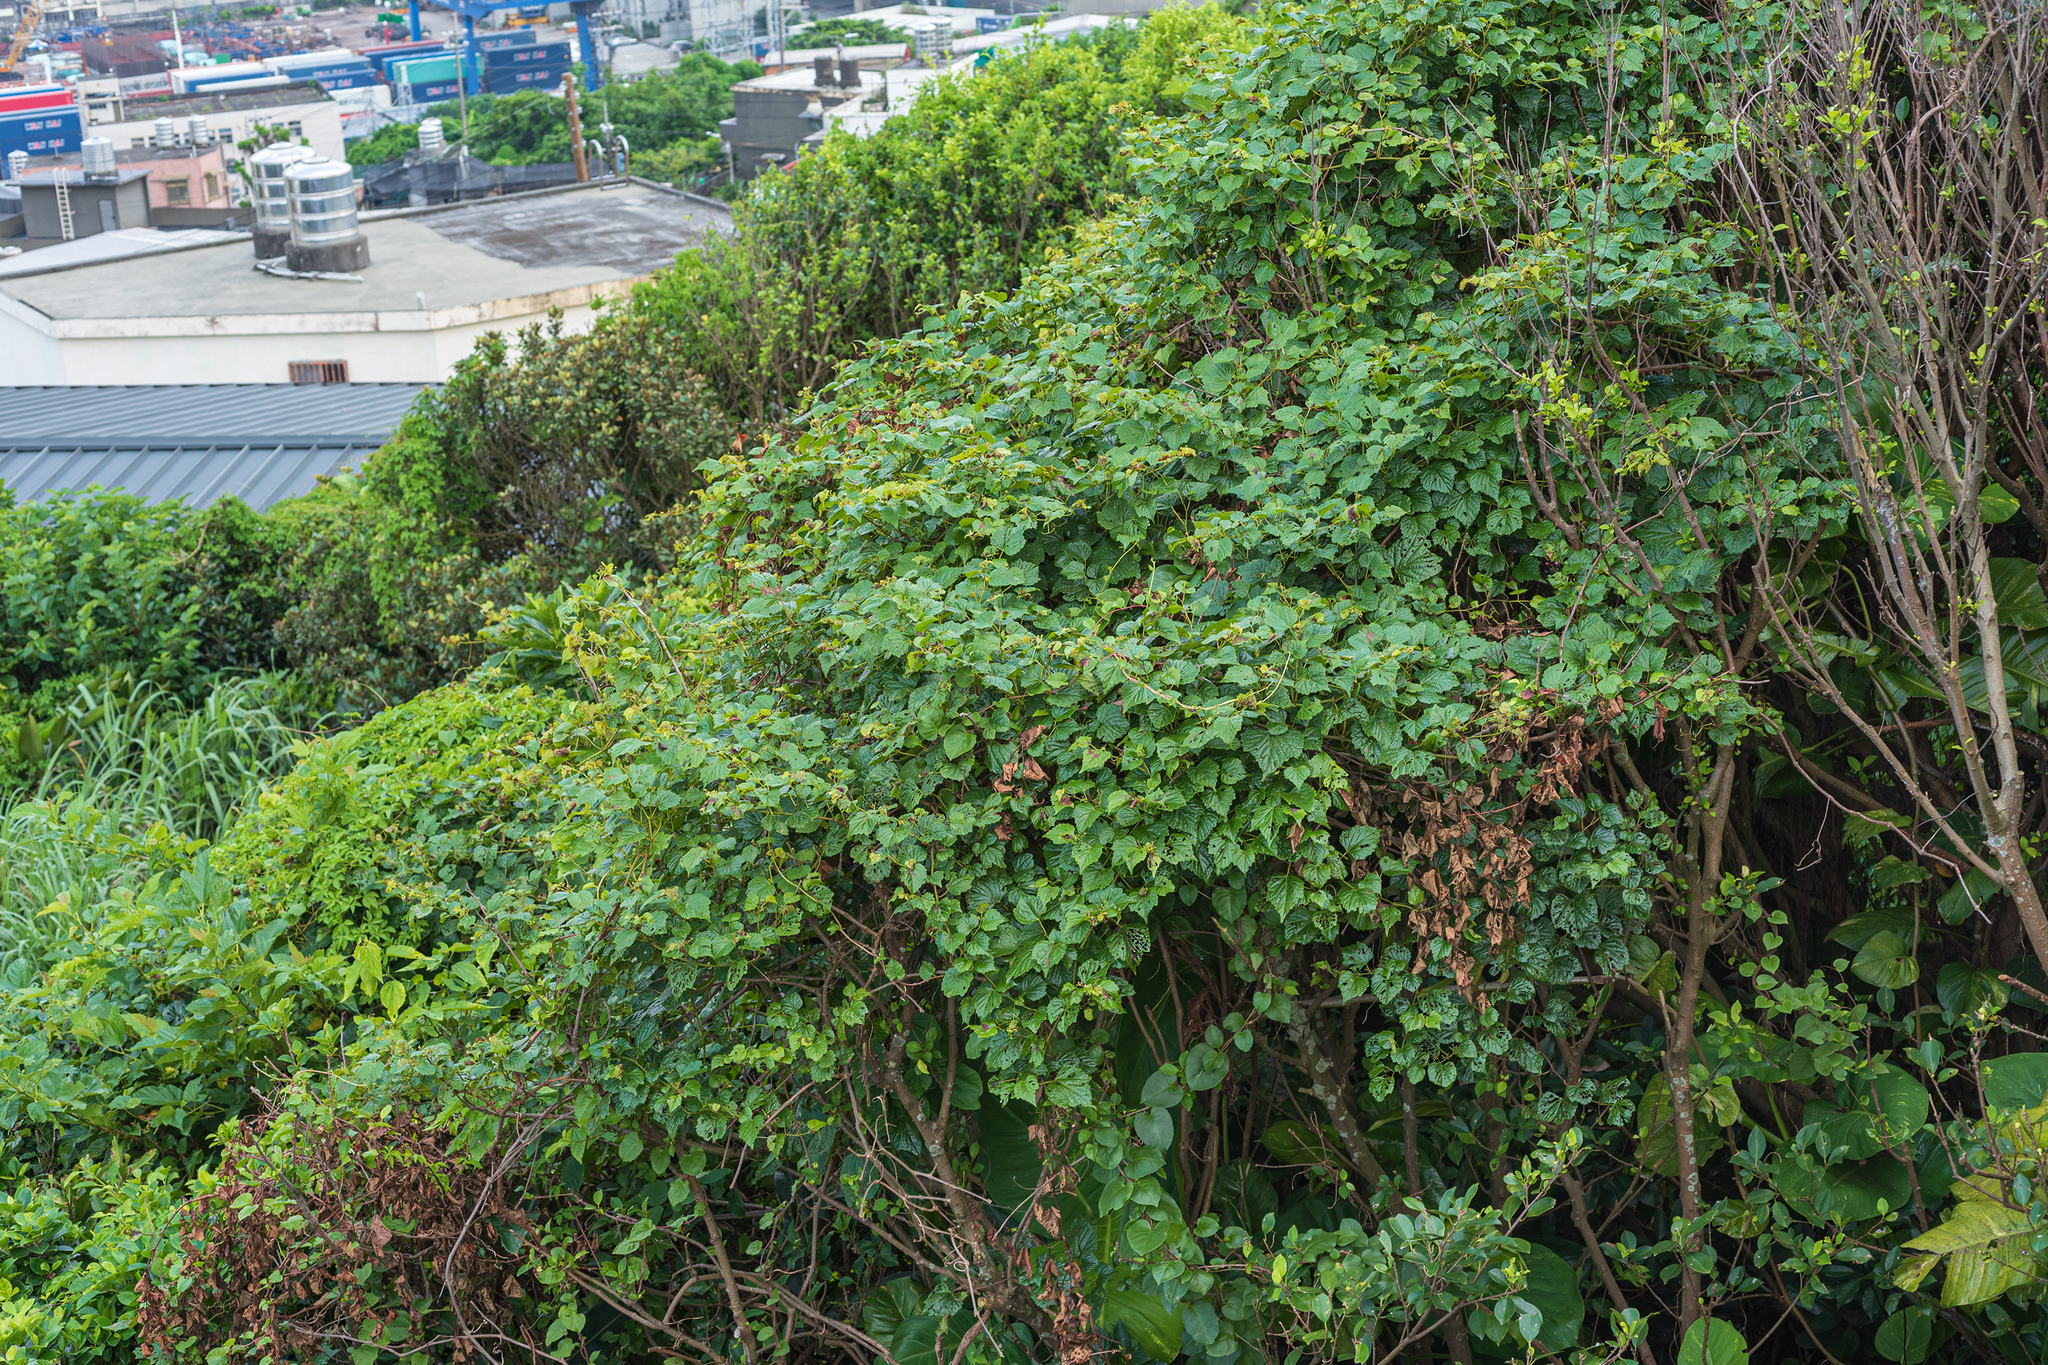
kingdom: Plantae
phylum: Tracheophyta
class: Magnoliopsida
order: Vitales
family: Vitaceae
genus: Ampelopsis
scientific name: Ampelopsis glandulosa
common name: Amur peppervine
